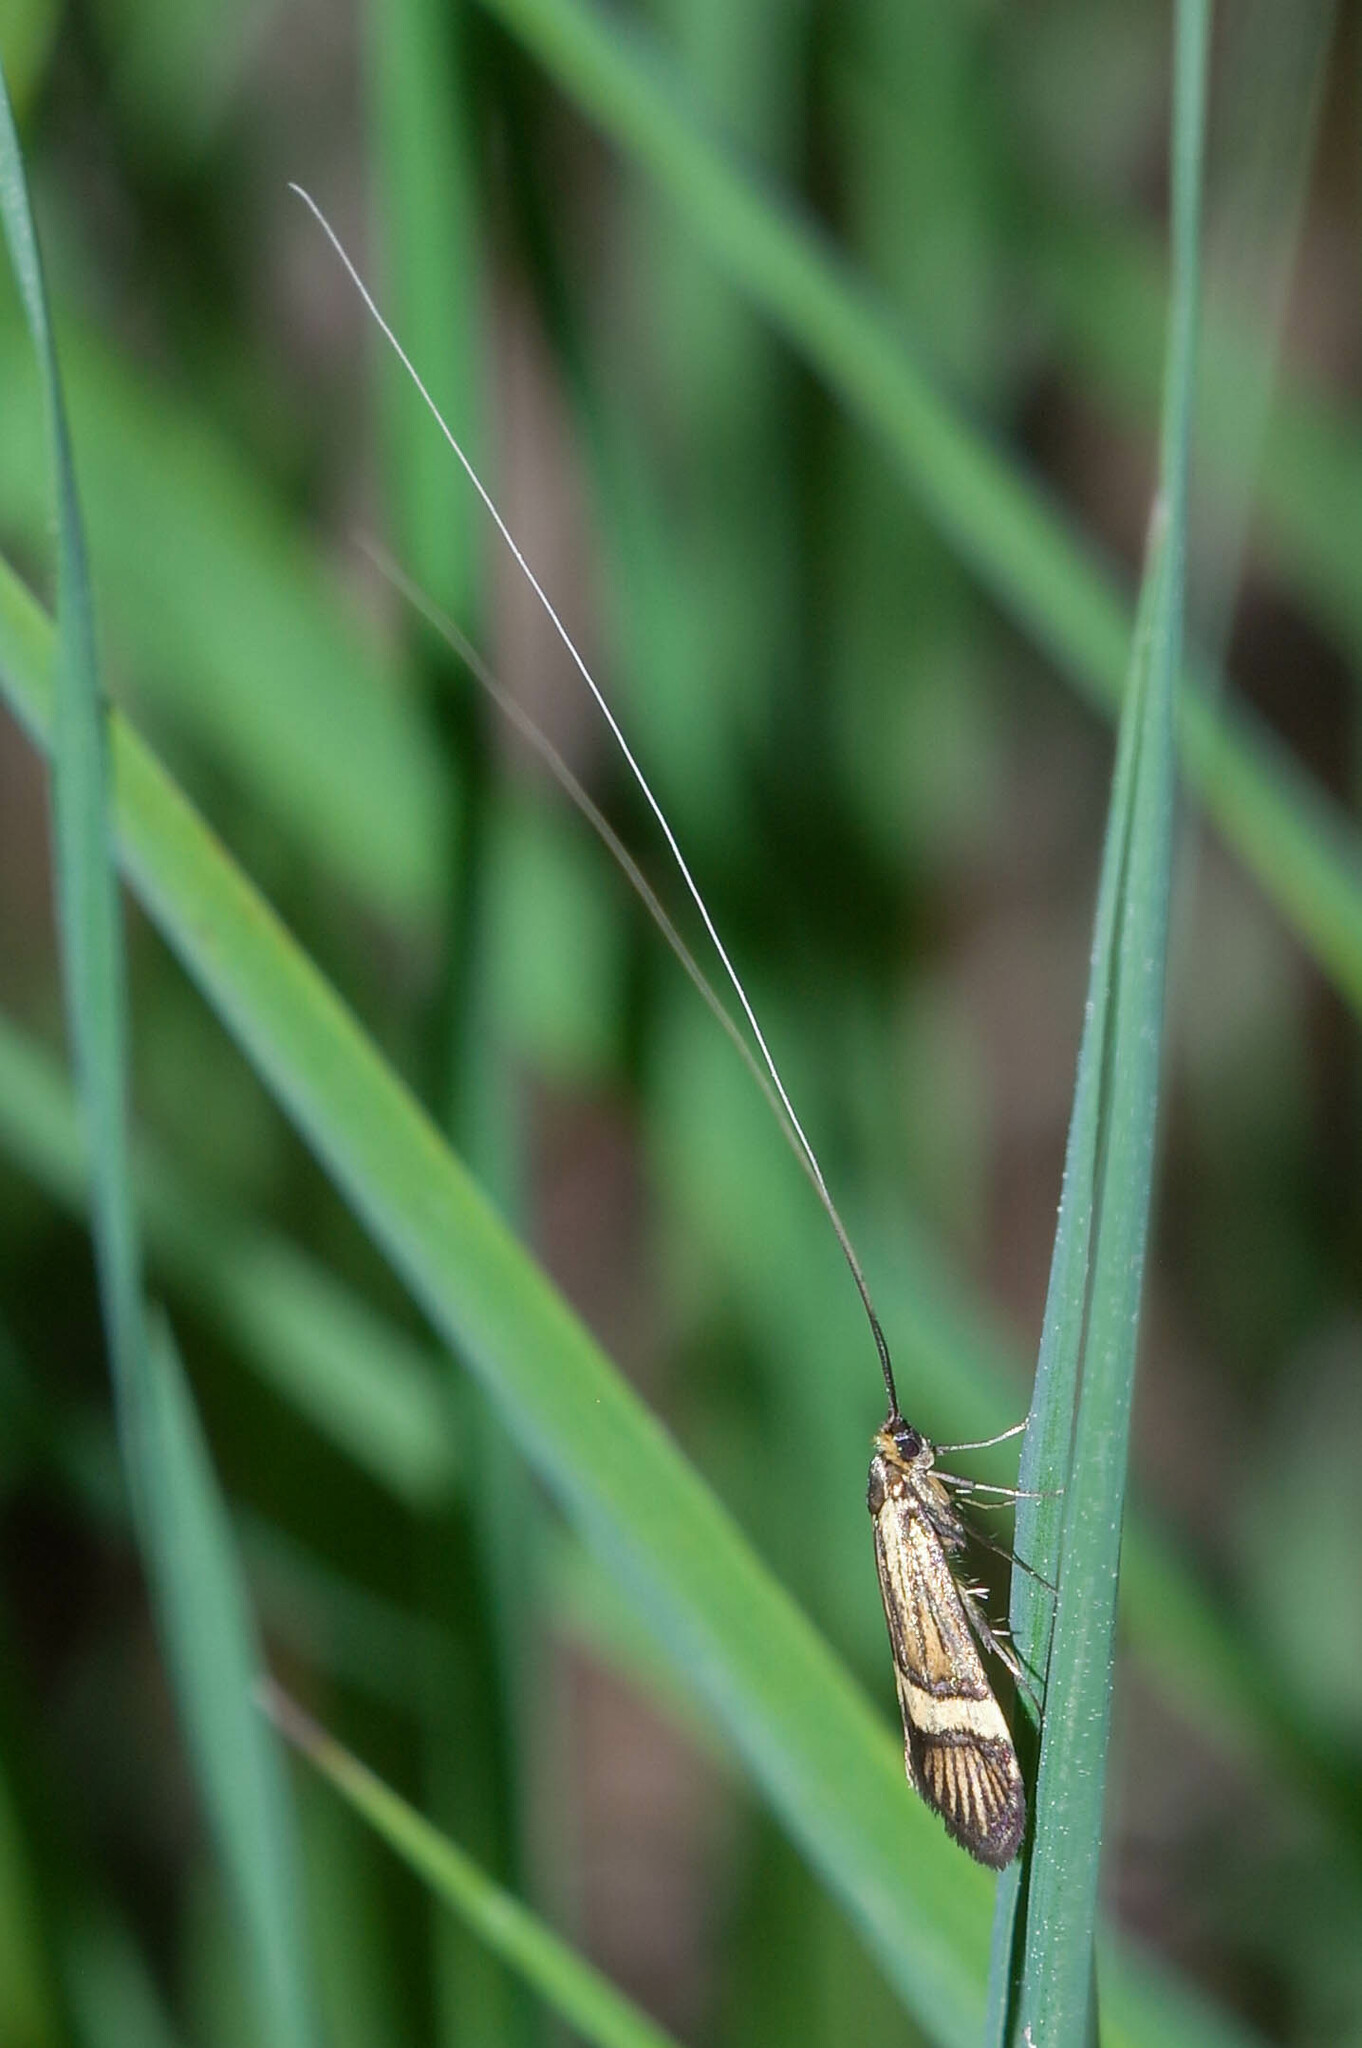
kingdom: Animalia
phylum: Arthropoda
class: Insecta
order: Lepidoptera
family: Adelidae
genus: Nemophora
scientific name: Nemophora degeerella
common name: Yellow-barred long-horn
